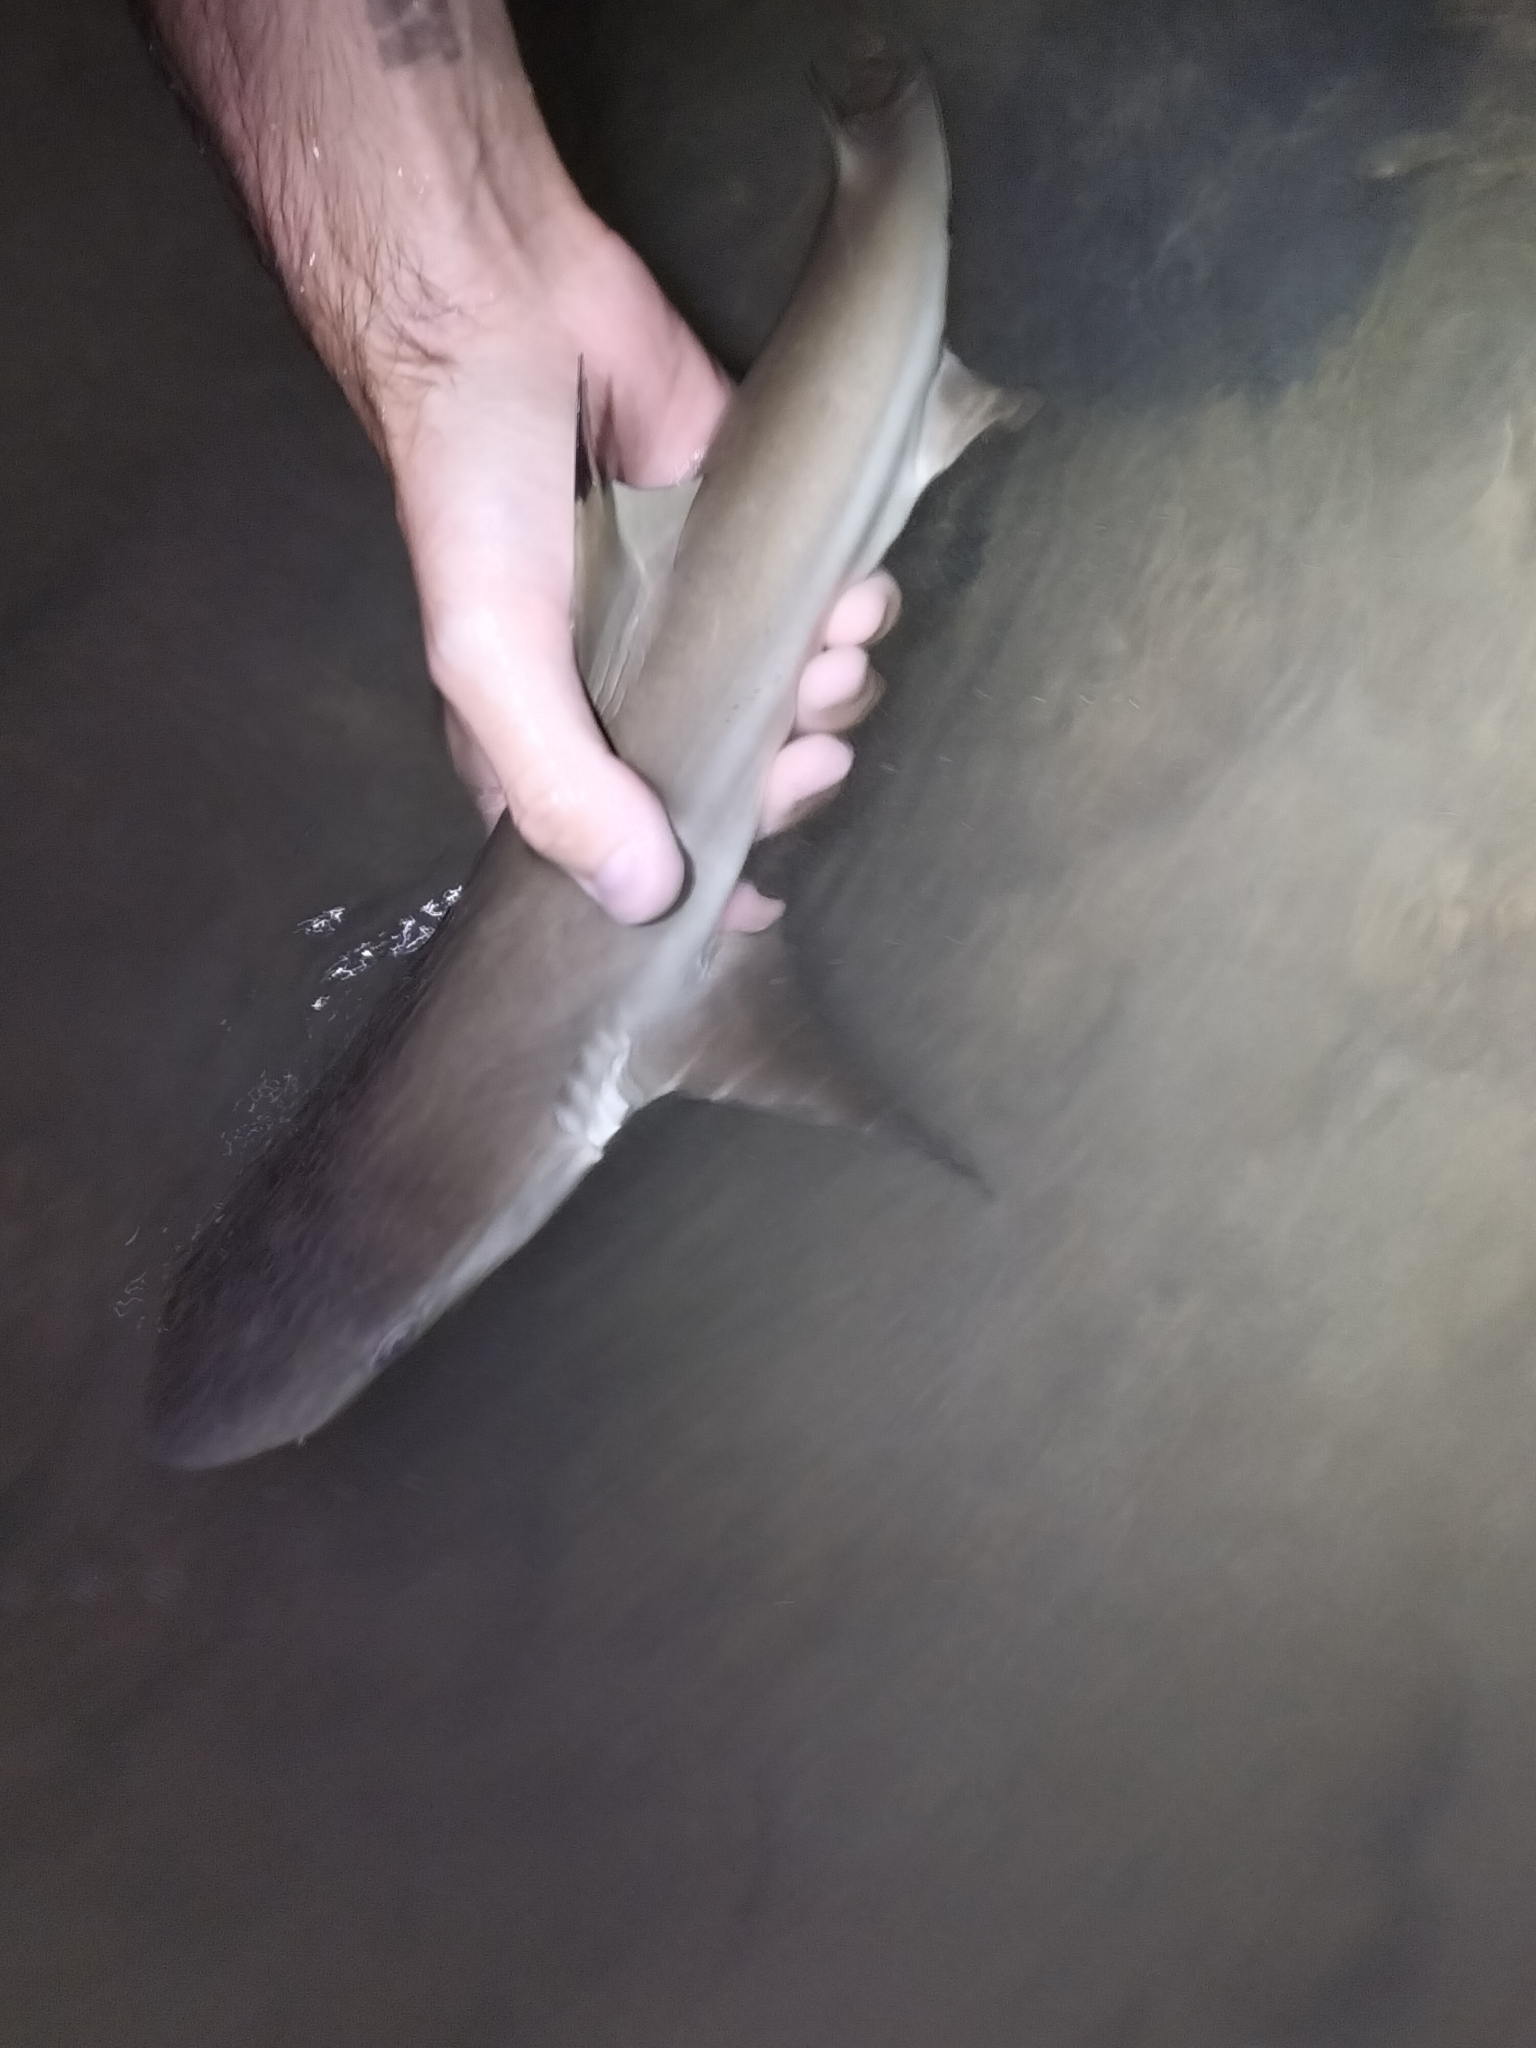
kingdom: Animalia
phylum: Chordata
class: Elasmobranchii
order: Carcharhiniformes
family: Carcharhinidae
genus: Carcharhinus
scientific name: Carcharhinus melanopterus
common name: Blacktip reef shark
